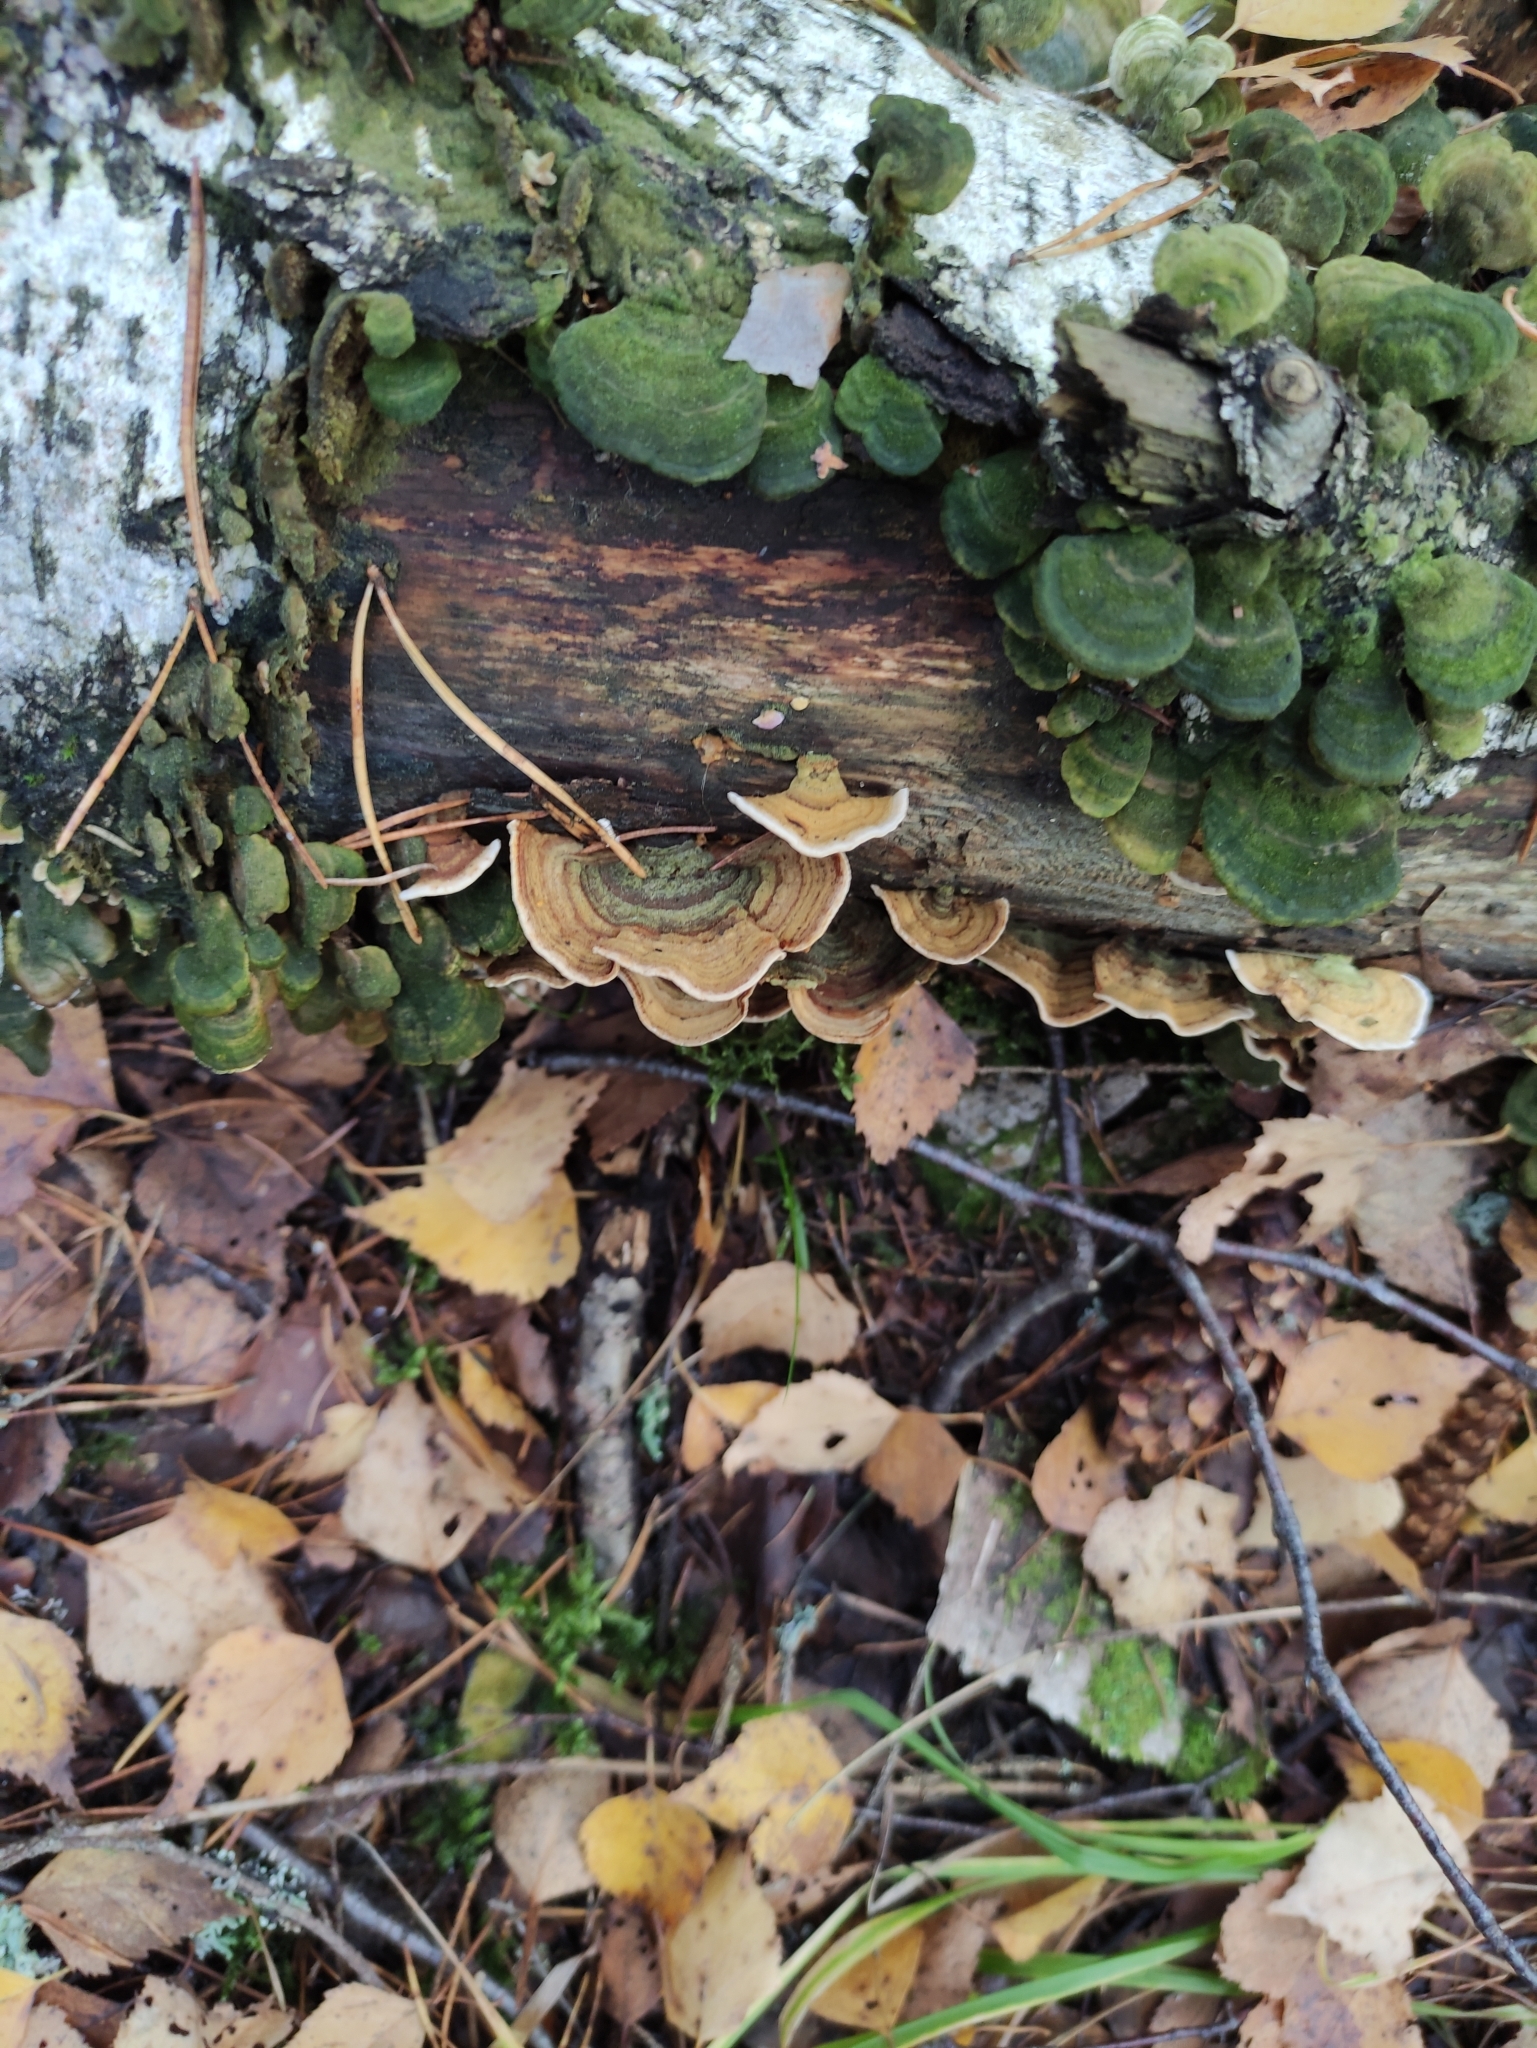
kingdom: Fungi
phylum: Basidiomycota
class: Agaricomycetes
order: Russulales
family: Stereaceae
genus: Stereum
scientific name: Stereum subtomentosum
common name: Yellowing curtain crust
